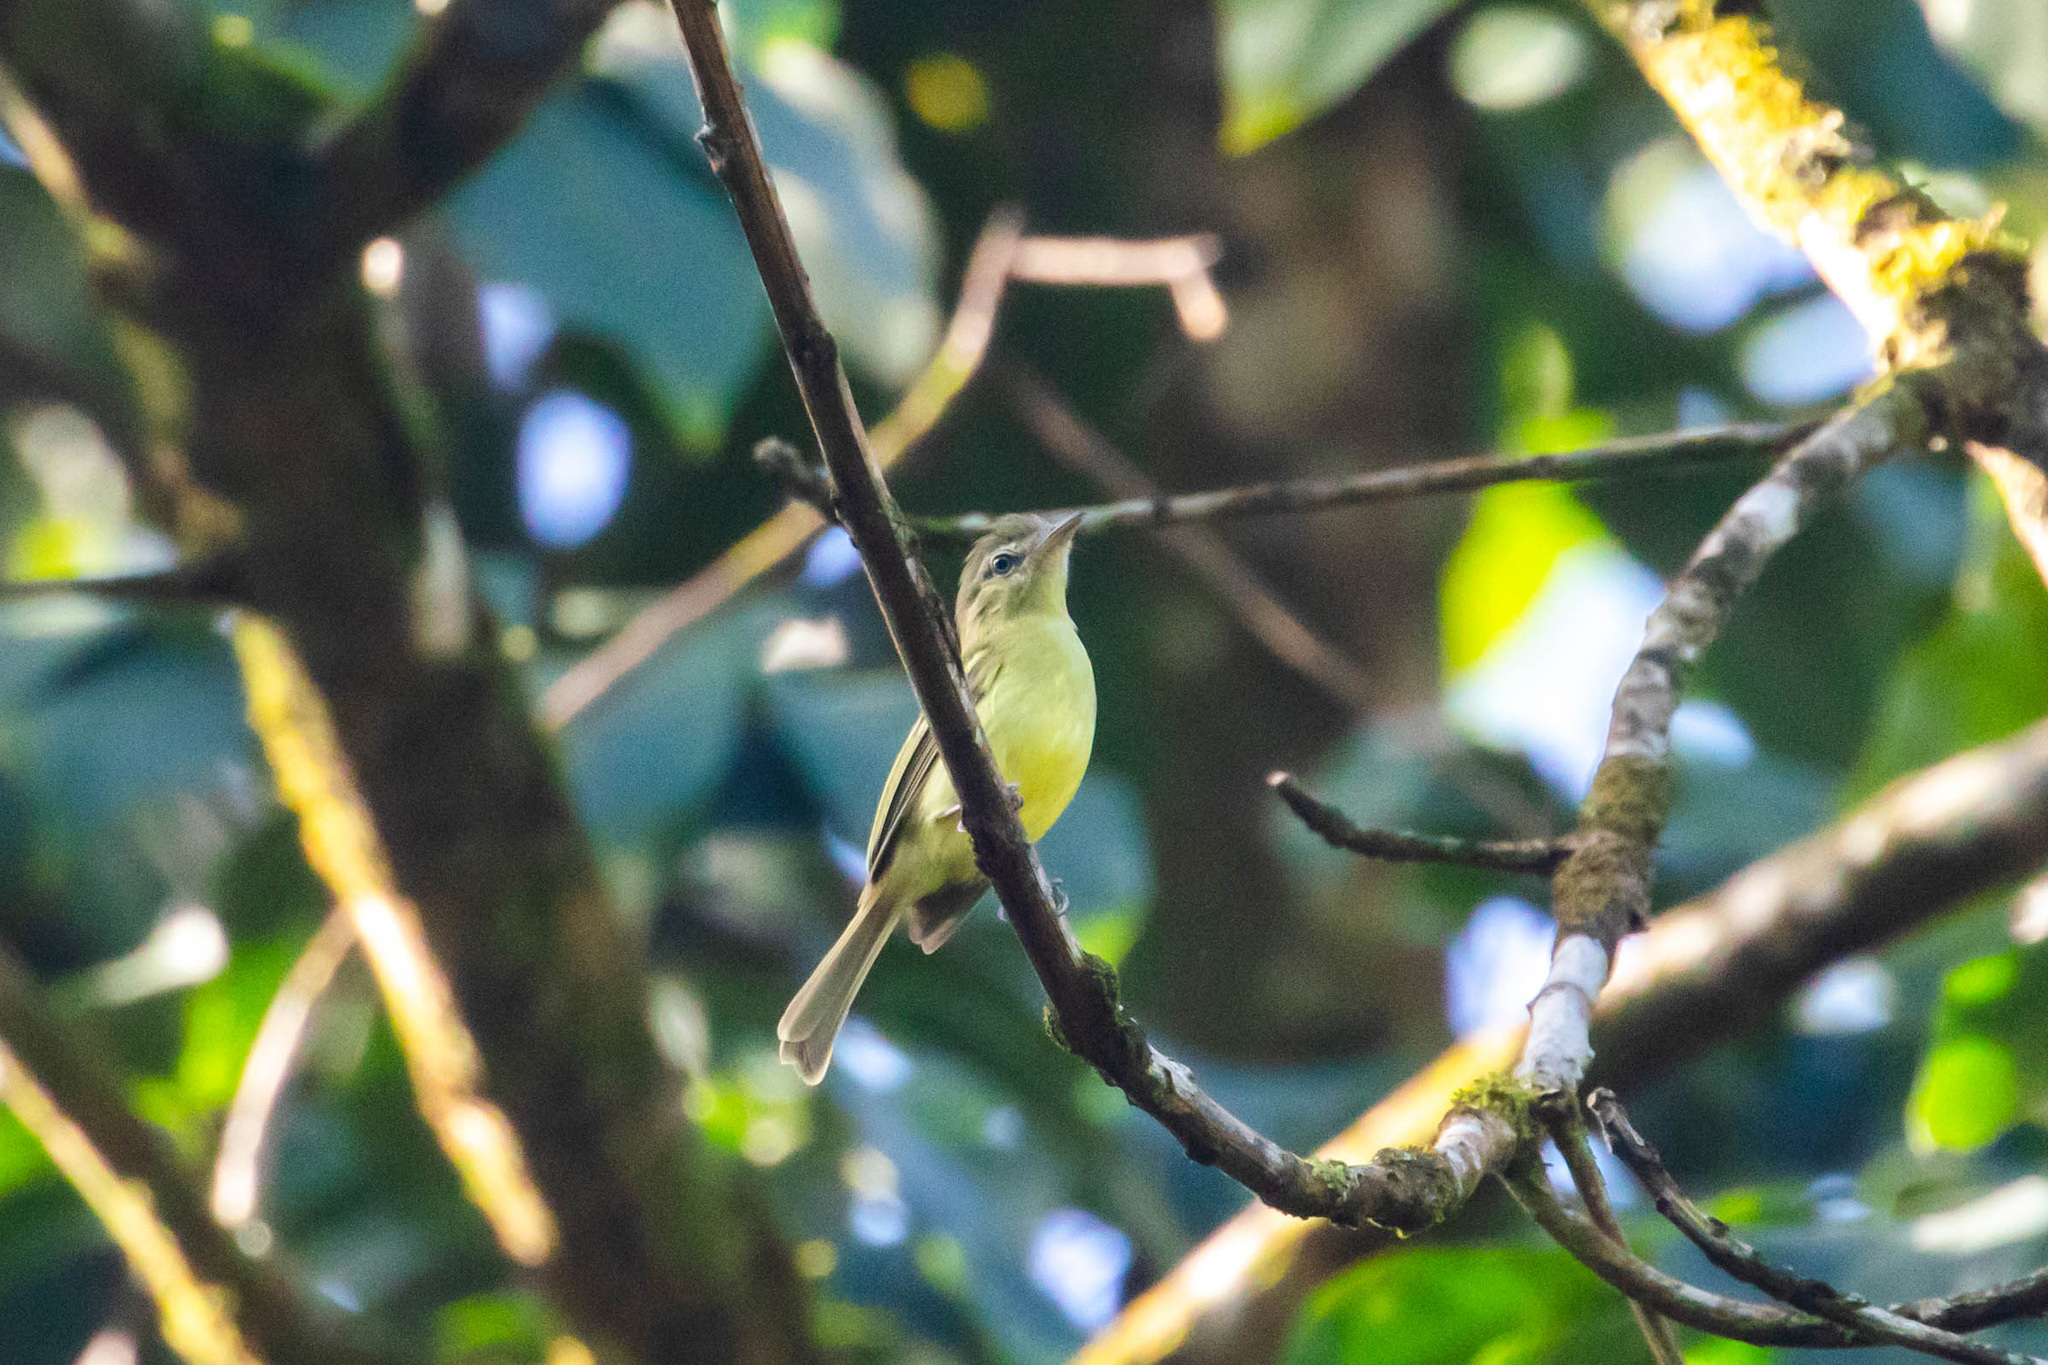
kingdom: Animalia
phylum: Chordata
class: Aves
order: Passeriformes
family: Tyrannidae
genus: Tolmomyias
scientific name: Tolmomyias sulphurescens
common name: Yellow-olive flycatcher
